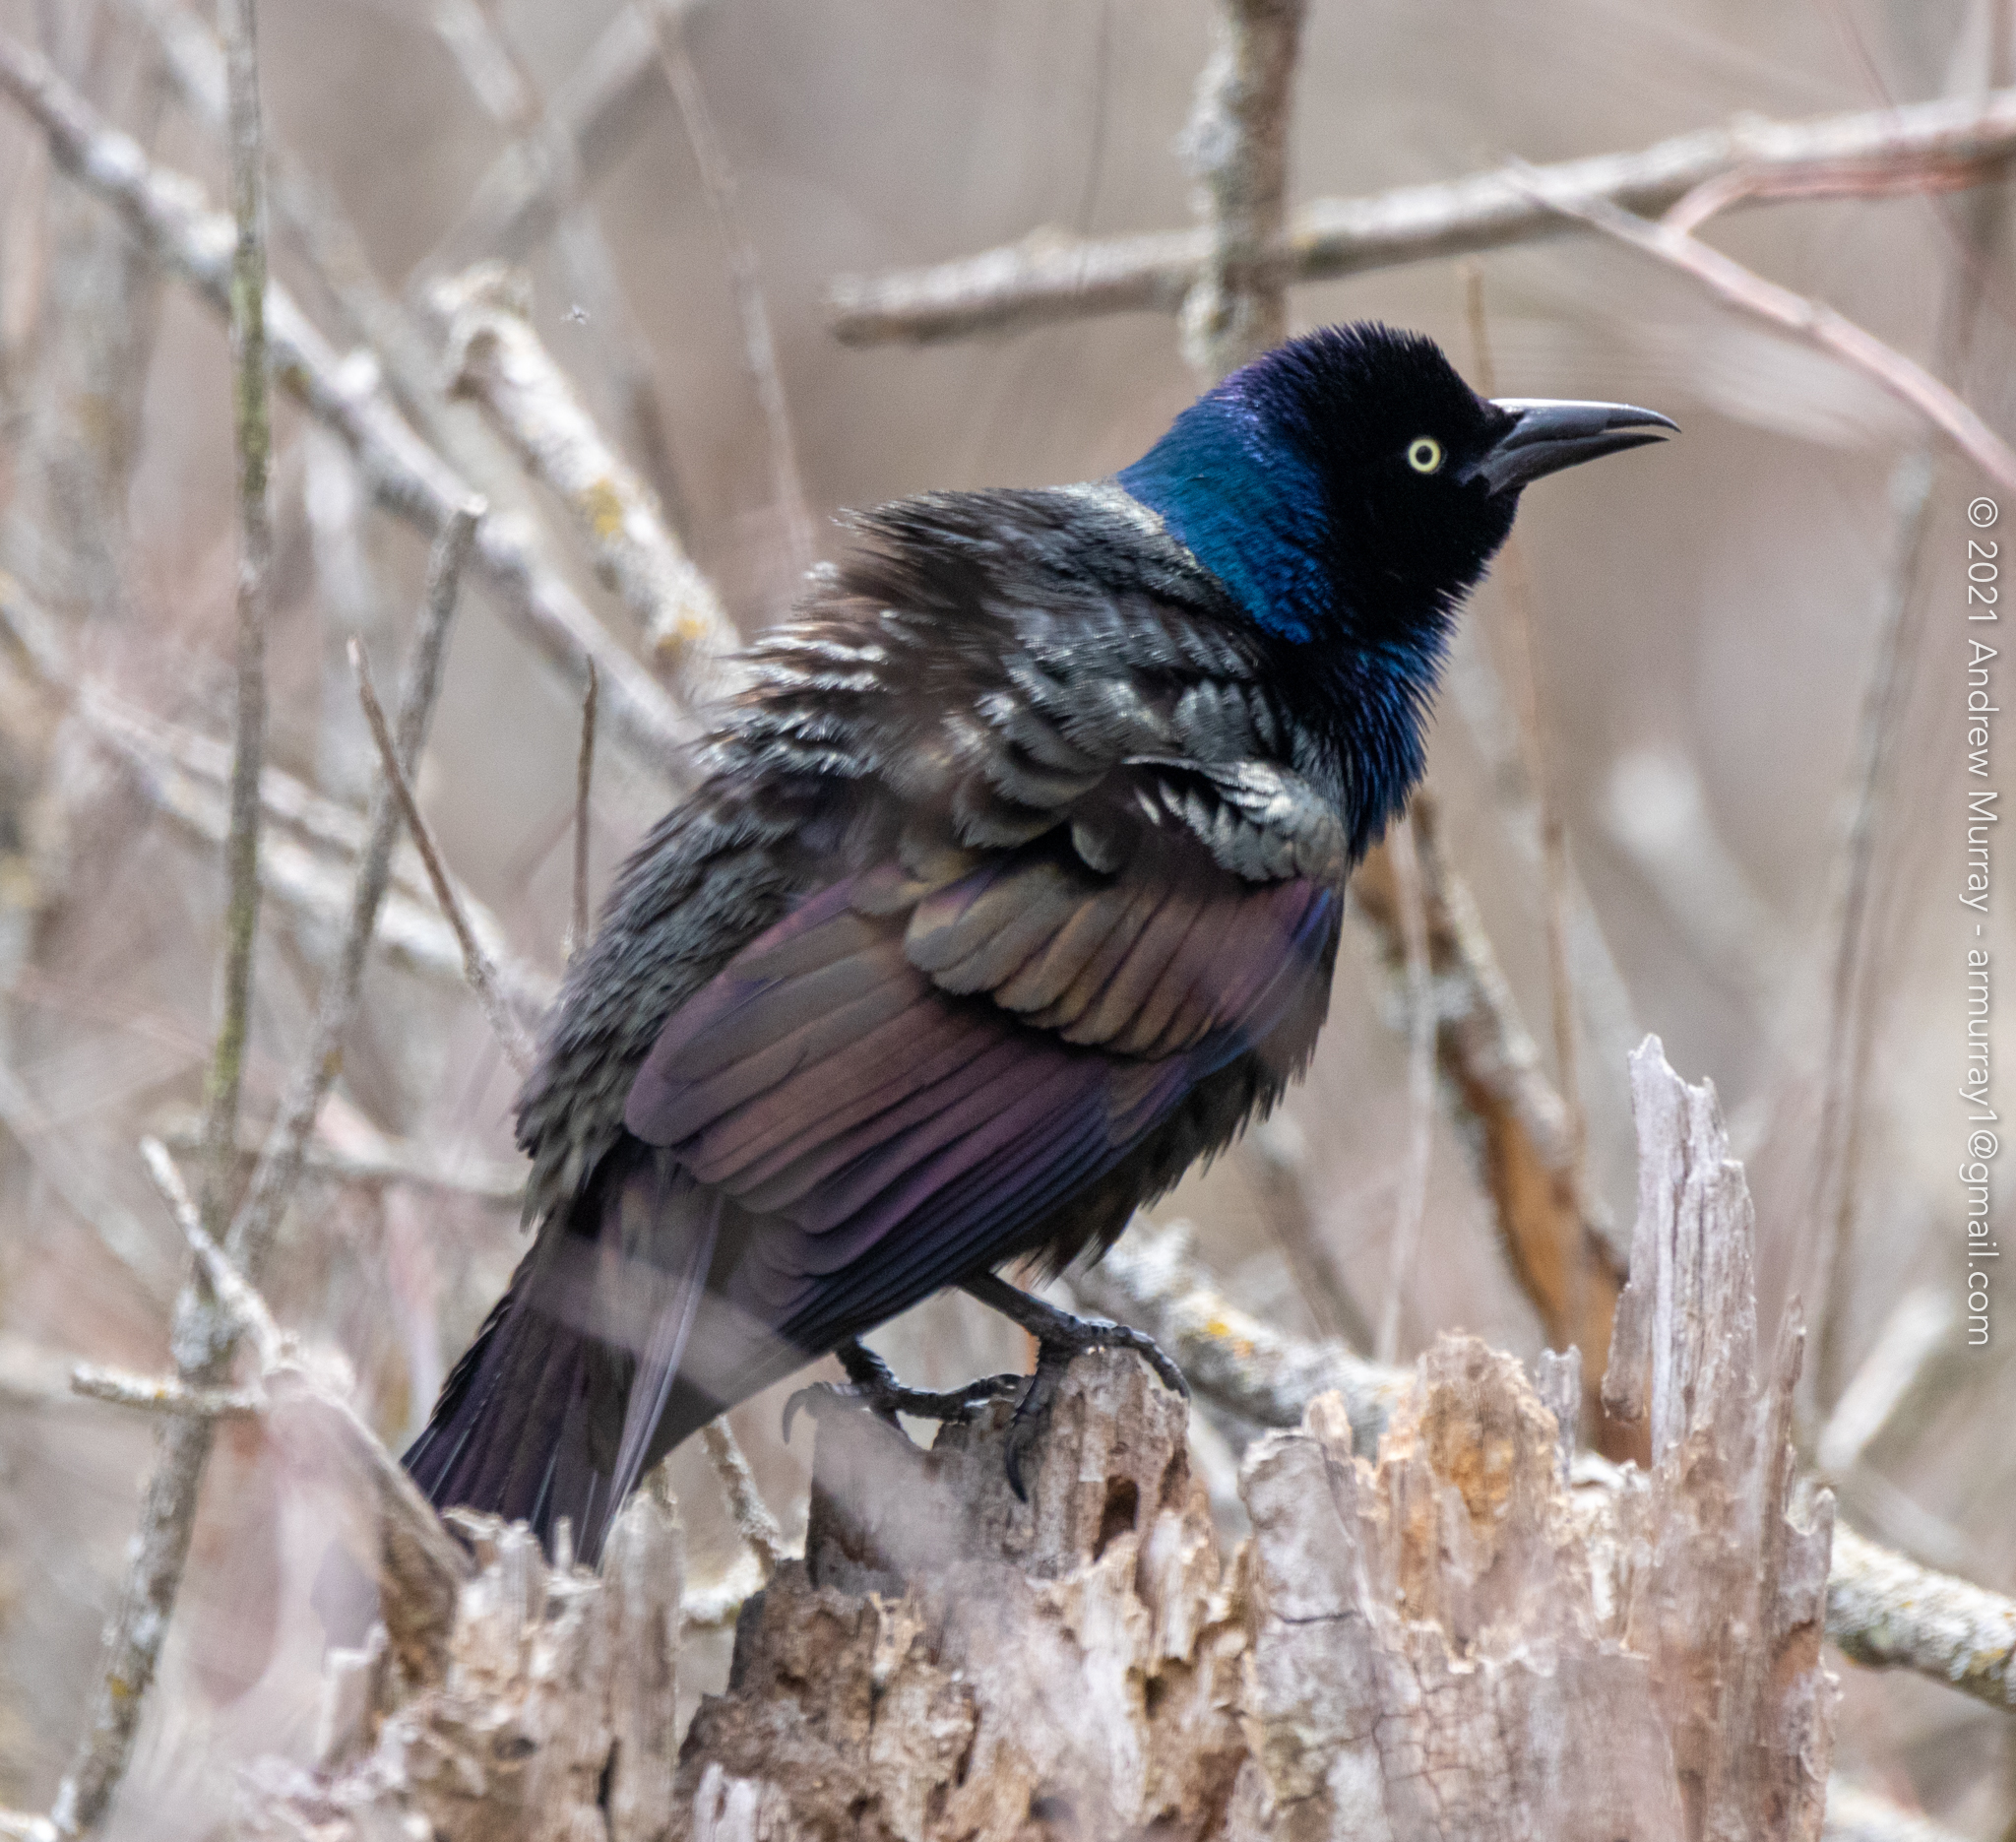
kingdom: Animalia
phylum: Chordata
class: Aves
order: Passeriformes
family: Icteridae
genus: Quiscalus
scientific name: Quiscalus quiscula
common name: Common grackle
